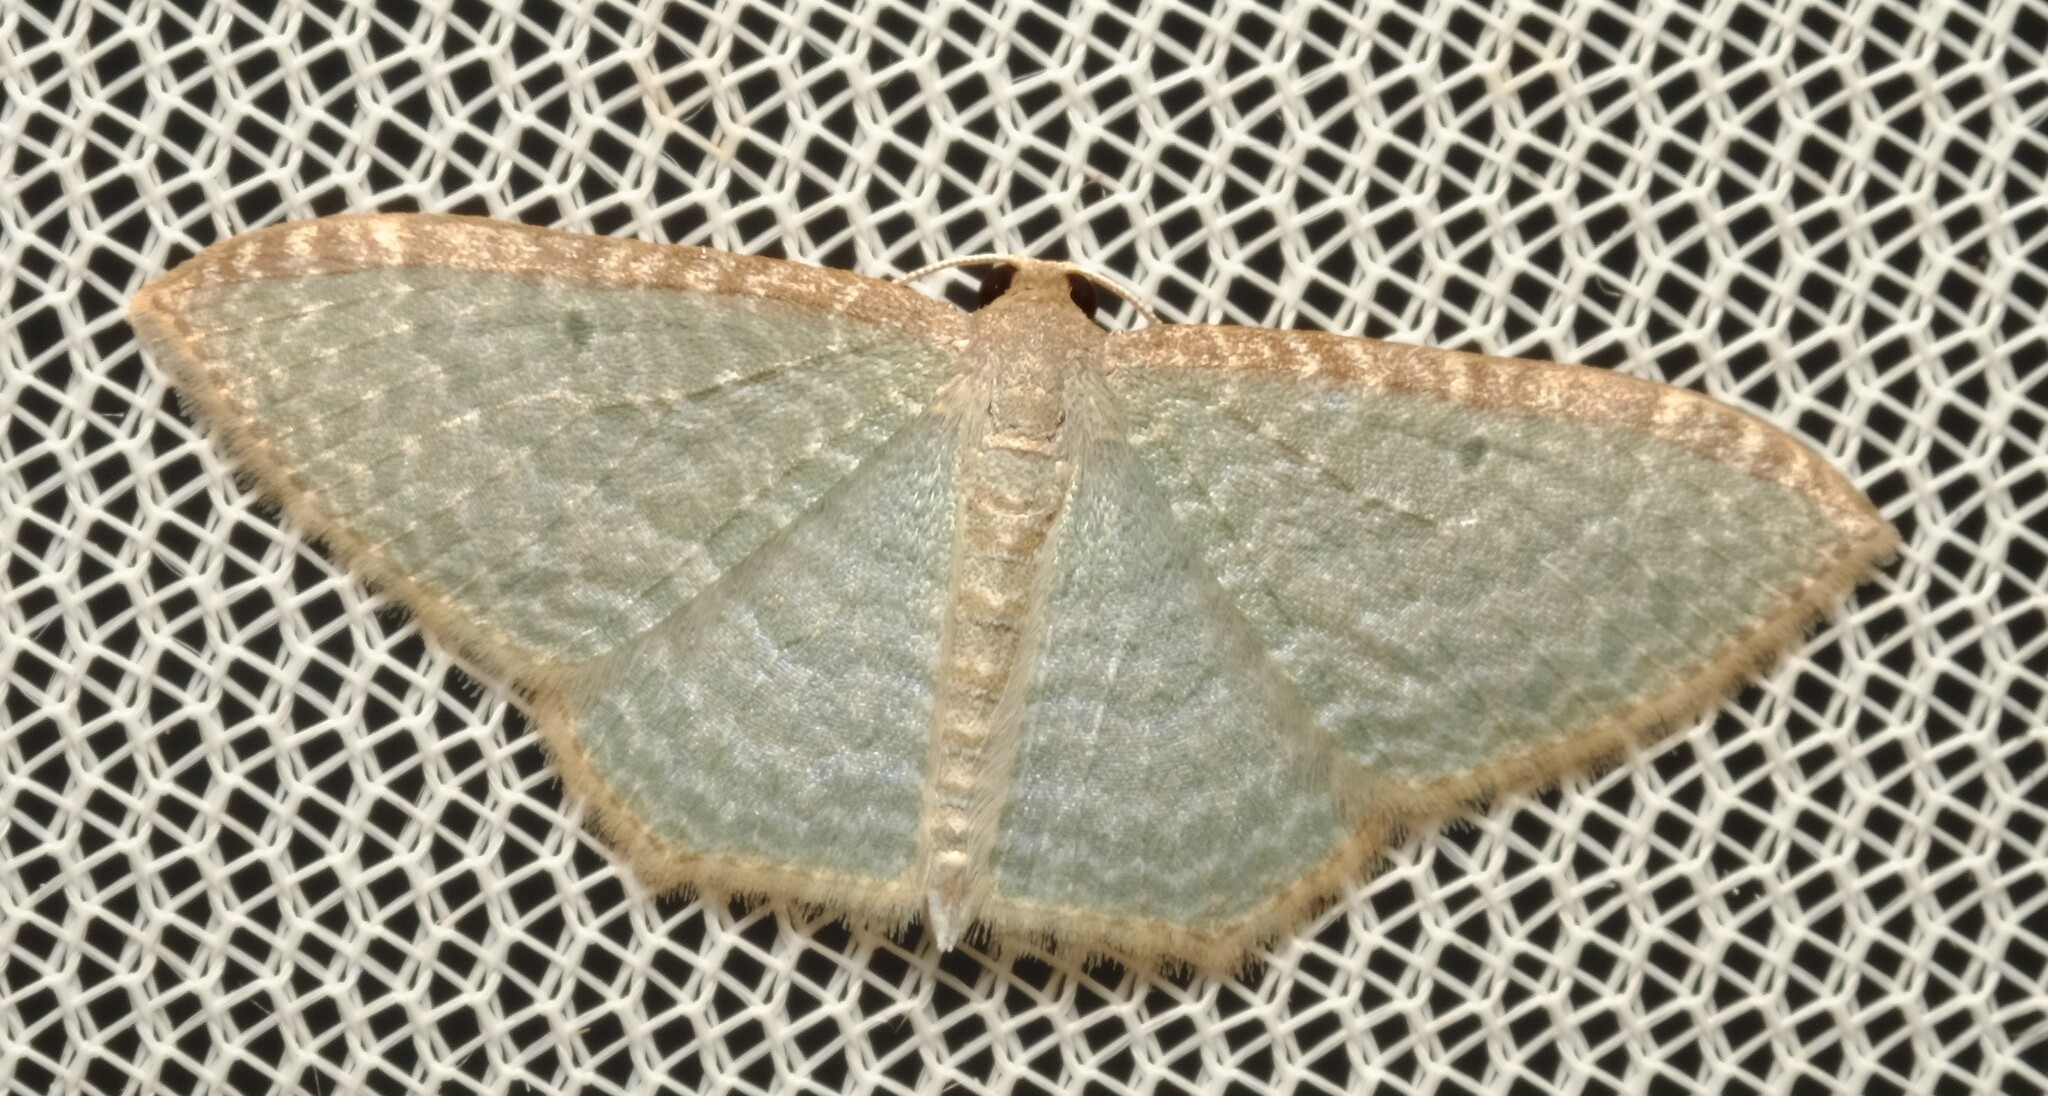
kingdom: Animalia
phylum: Arthropoda
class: Insecta
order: Lepidoptera
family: Geometridae
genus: Poecilasthena
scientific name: Poecilasthena pulchraria
